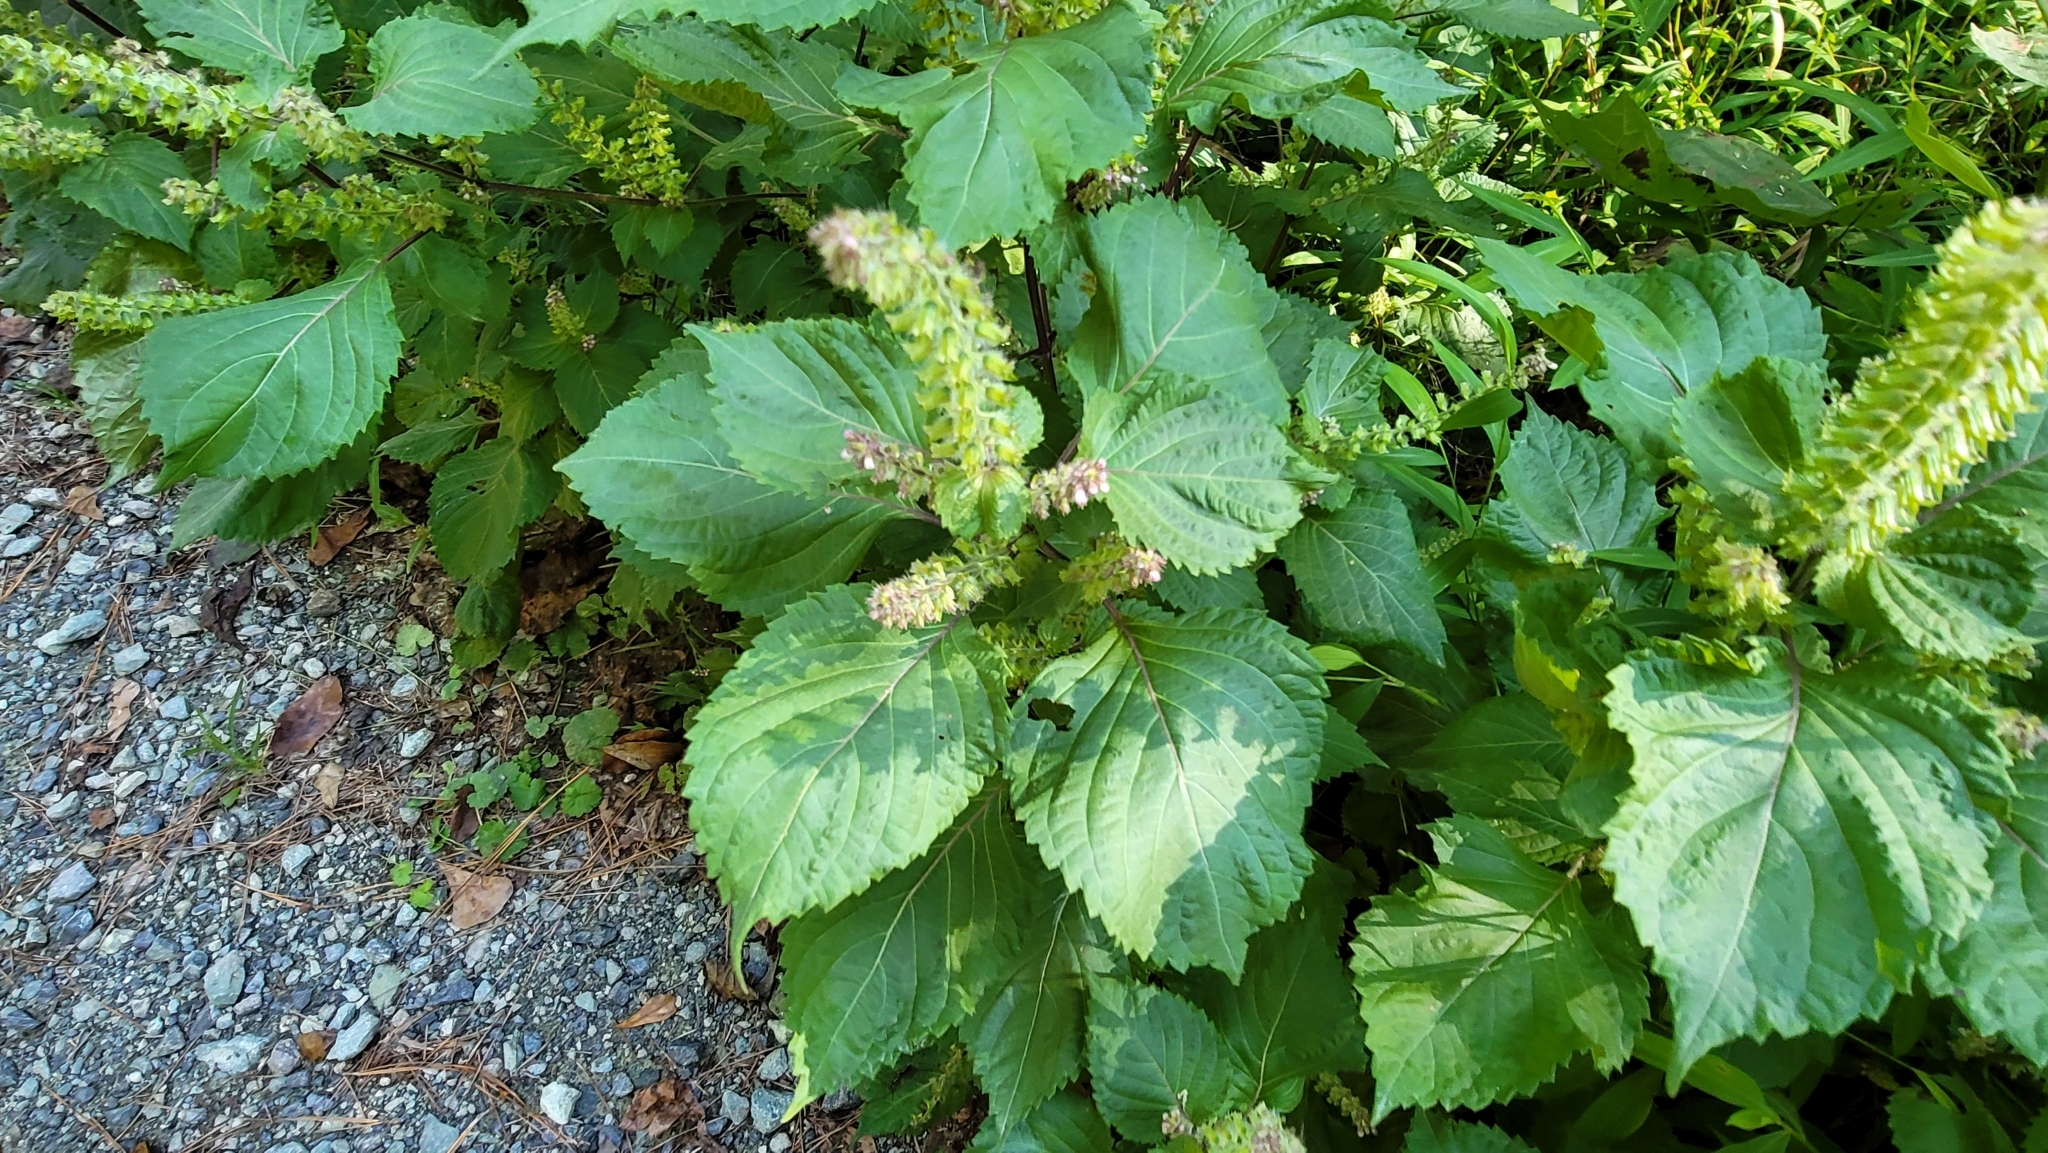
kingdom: Plantae
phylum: Tracheophyta
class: Magnoliopsida
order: Lamiales
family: Lamiaceae
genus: Perilla
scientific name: Perilla frutescens
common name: Perilla
